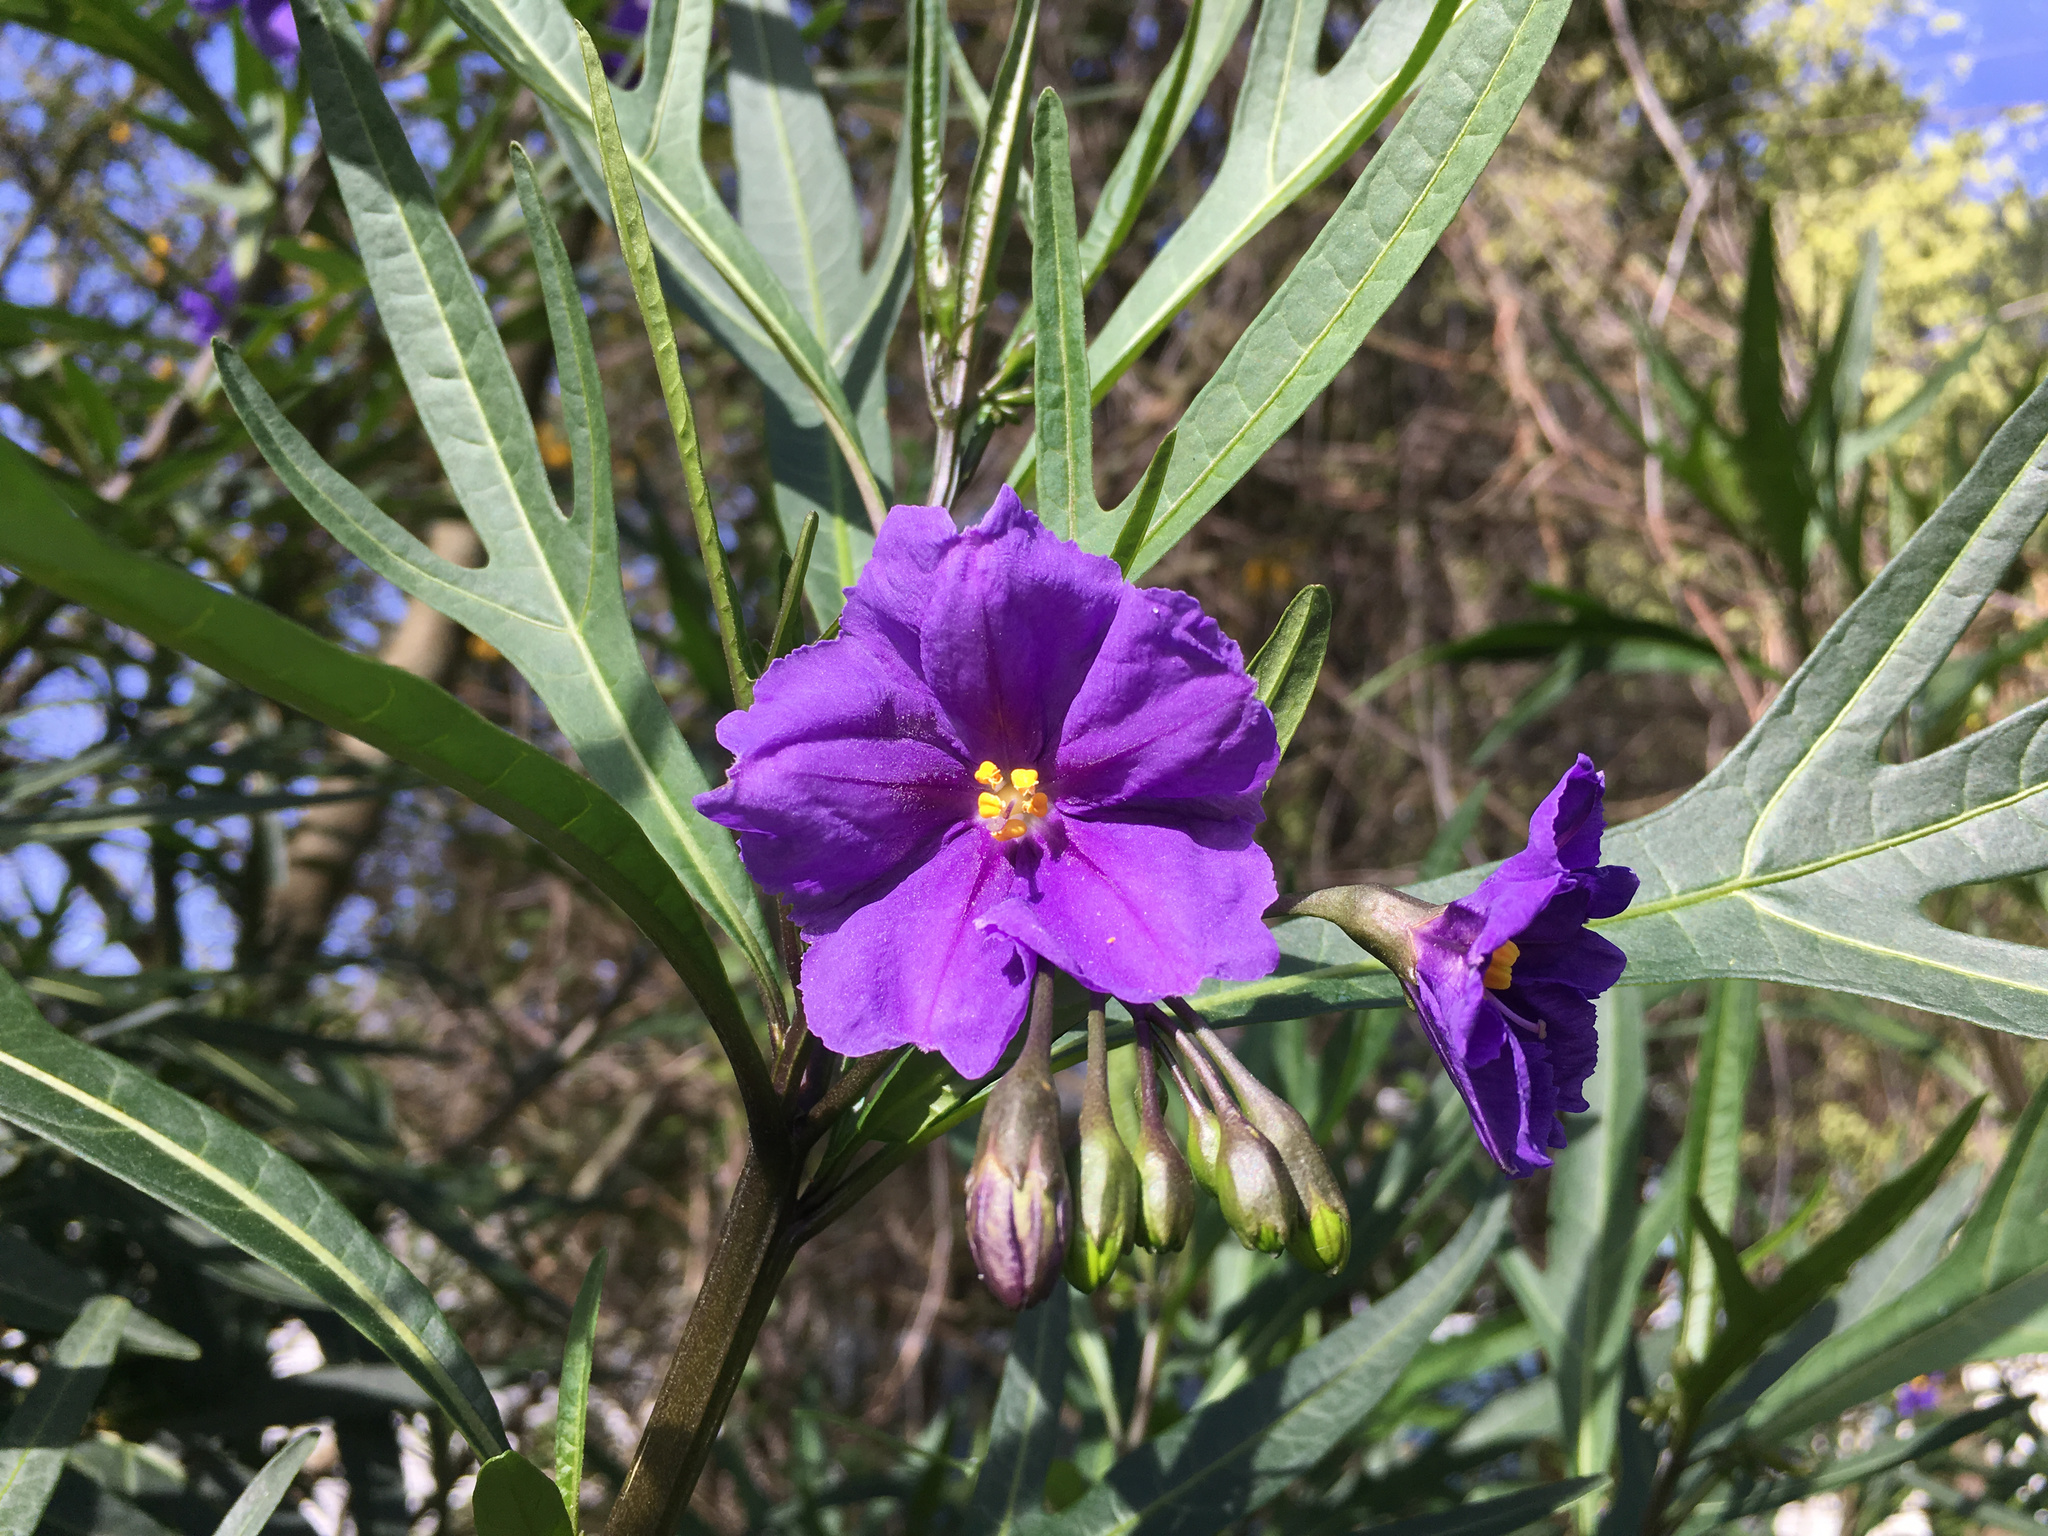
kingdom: Plantae
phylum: Tracheophyta
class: Magnoliopsida
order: Solanales
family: Solanaceae
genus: Solanum
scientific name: Solanum laciniatum
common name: Kangaroo-apple
